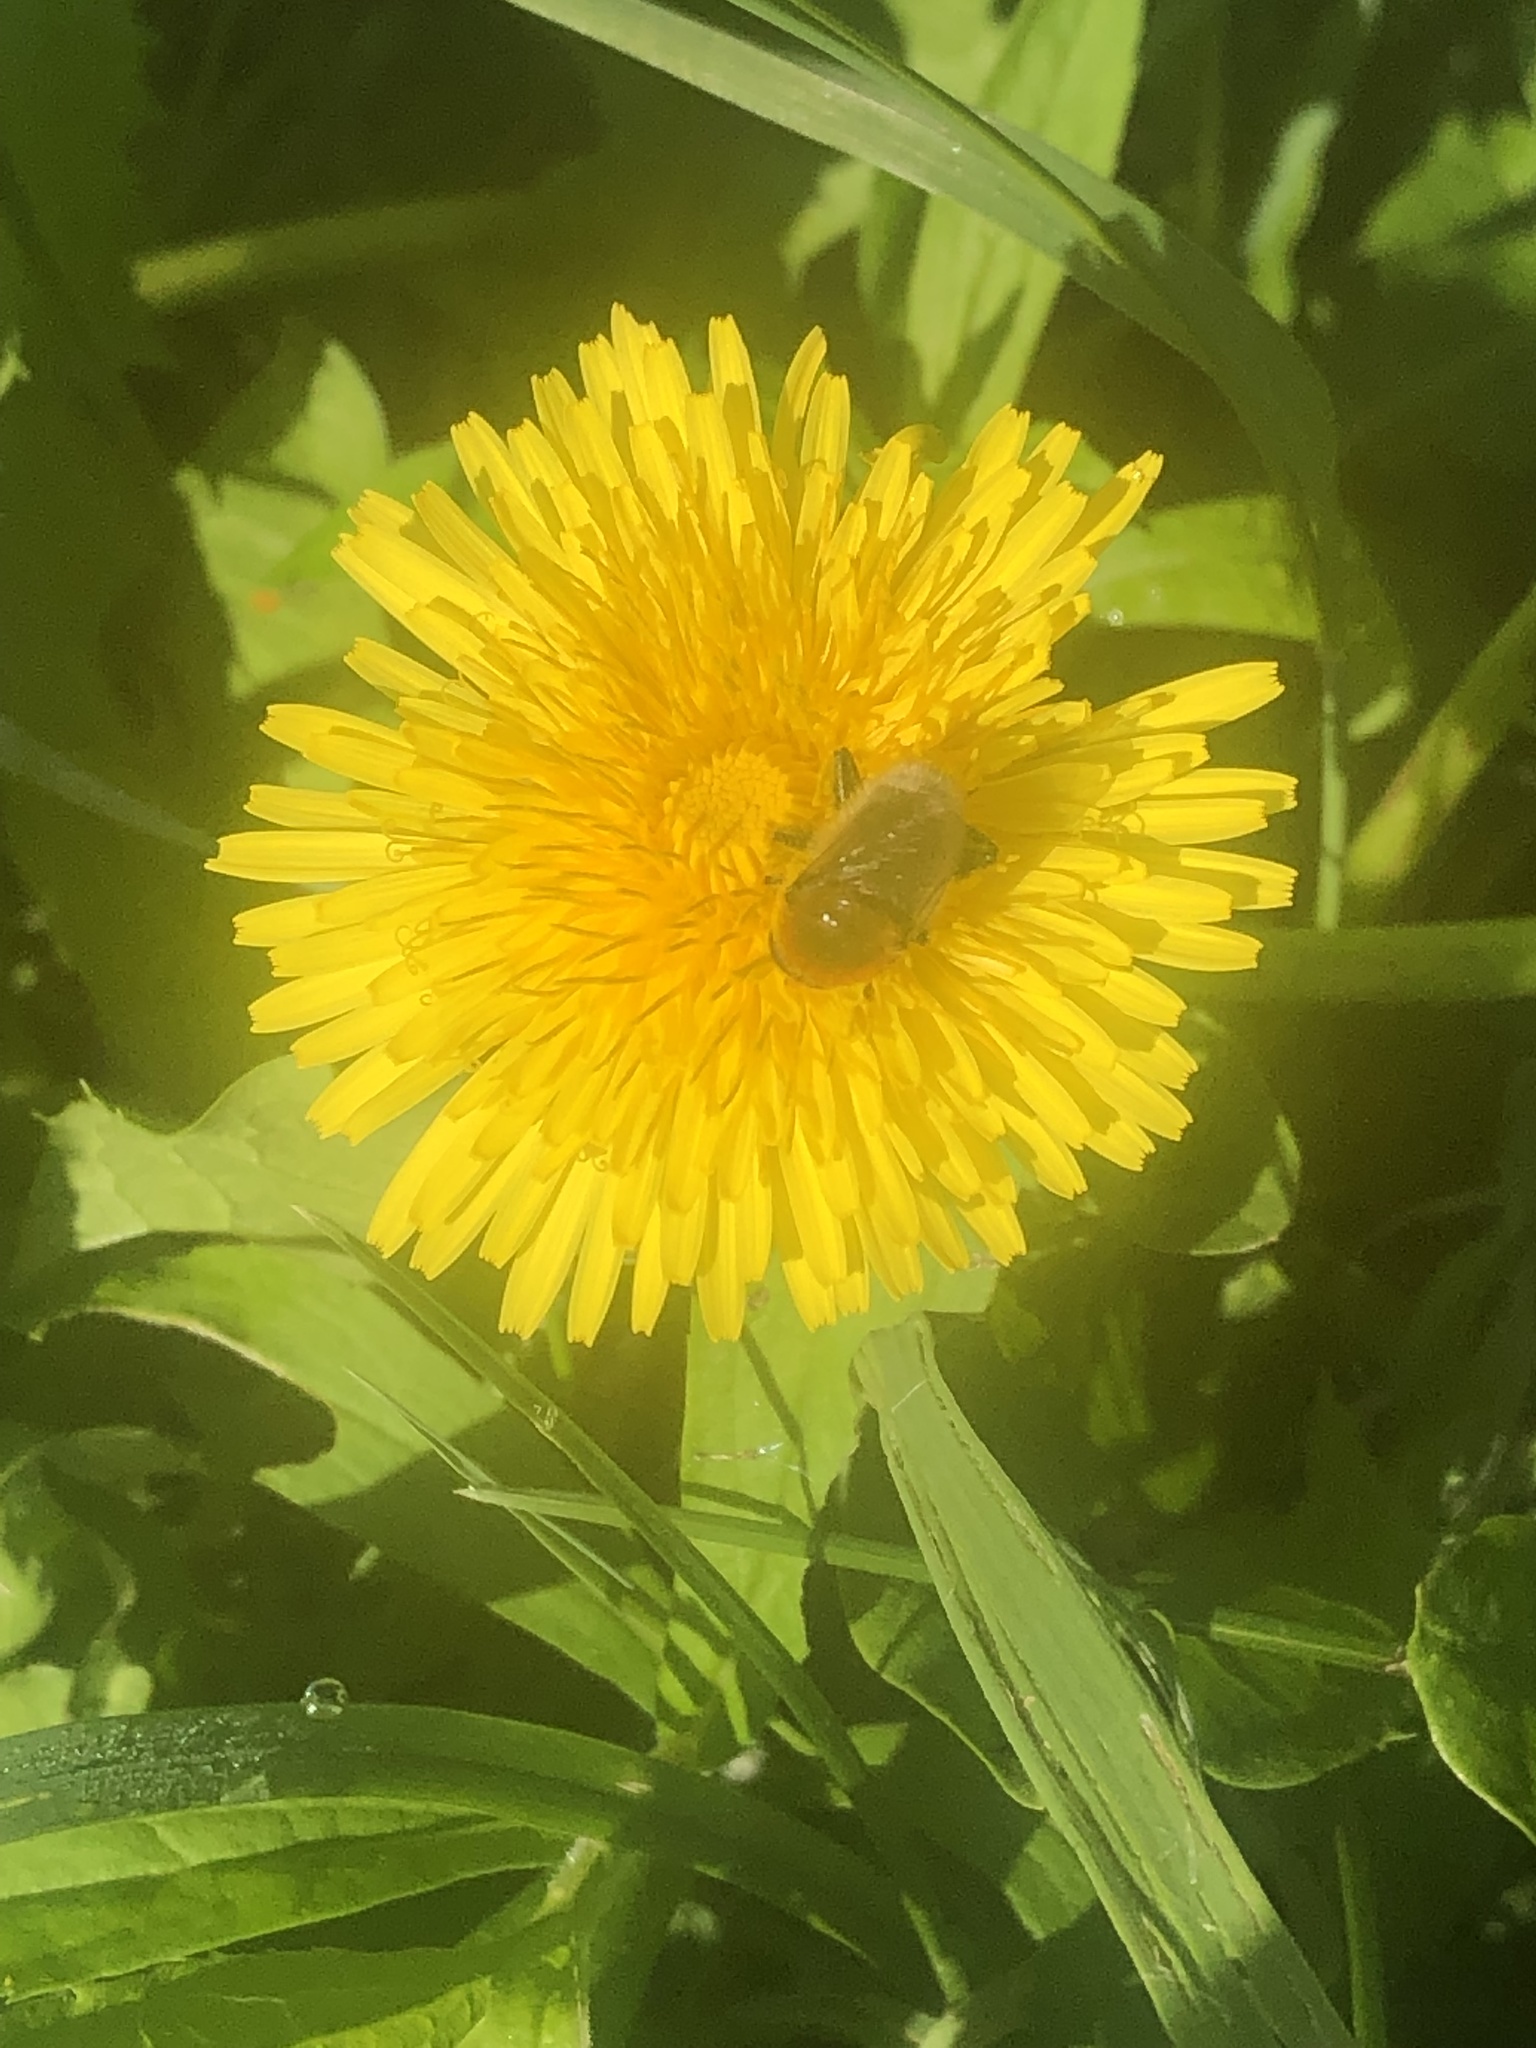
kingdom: Animalia
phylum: Arthropoda
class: Insecta
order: Diptera
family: Syrphidae
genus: Merodon
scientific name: Merodon equestris
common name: Greater bulb-fly
